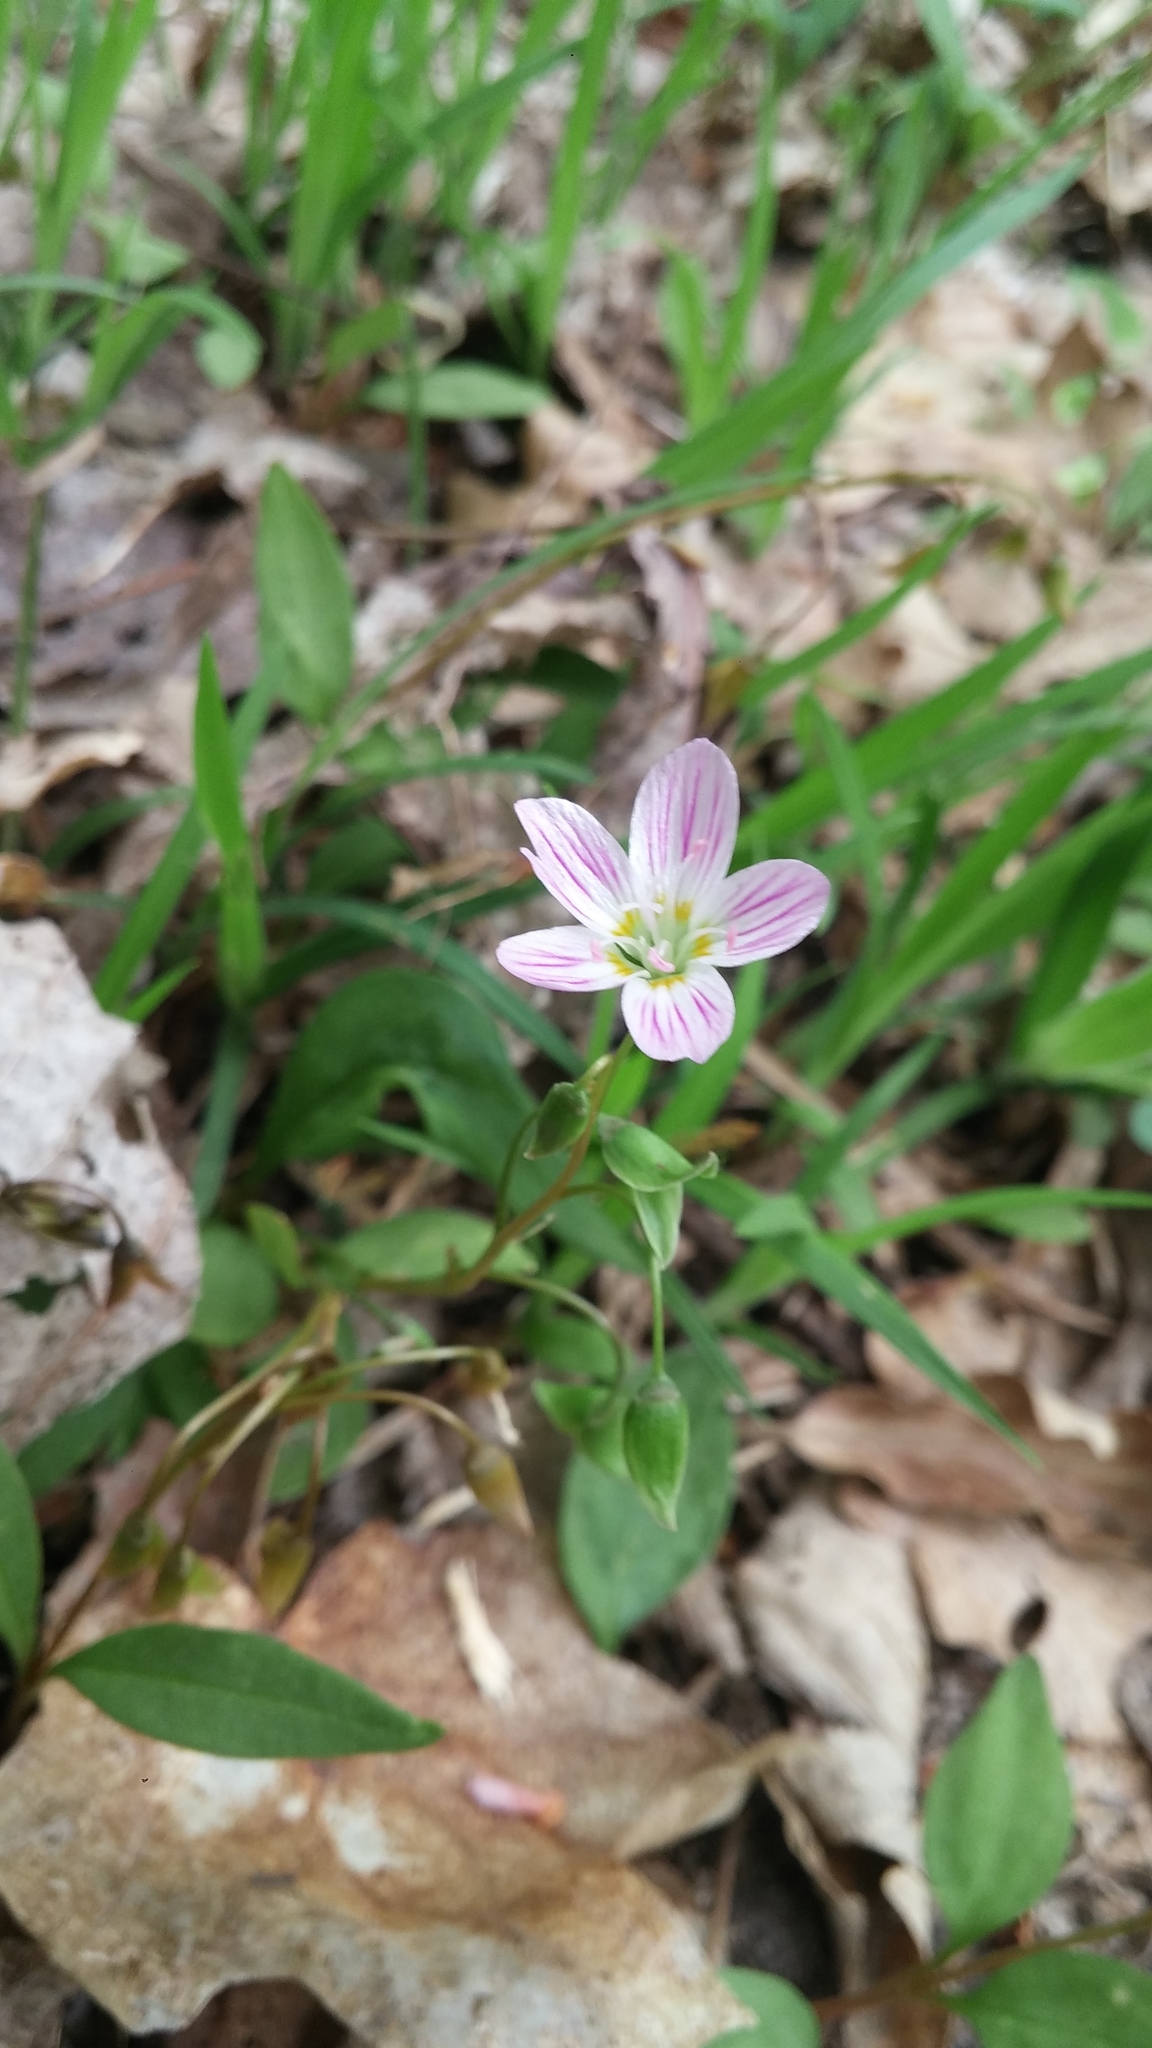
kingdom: Plantae
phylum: Tracheophyta
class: Magnoliopsida
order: Caryophyllales
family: Montiaceae
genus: Claytonia
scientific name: Claytonia caroliniana
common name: Carolina spring beauty
